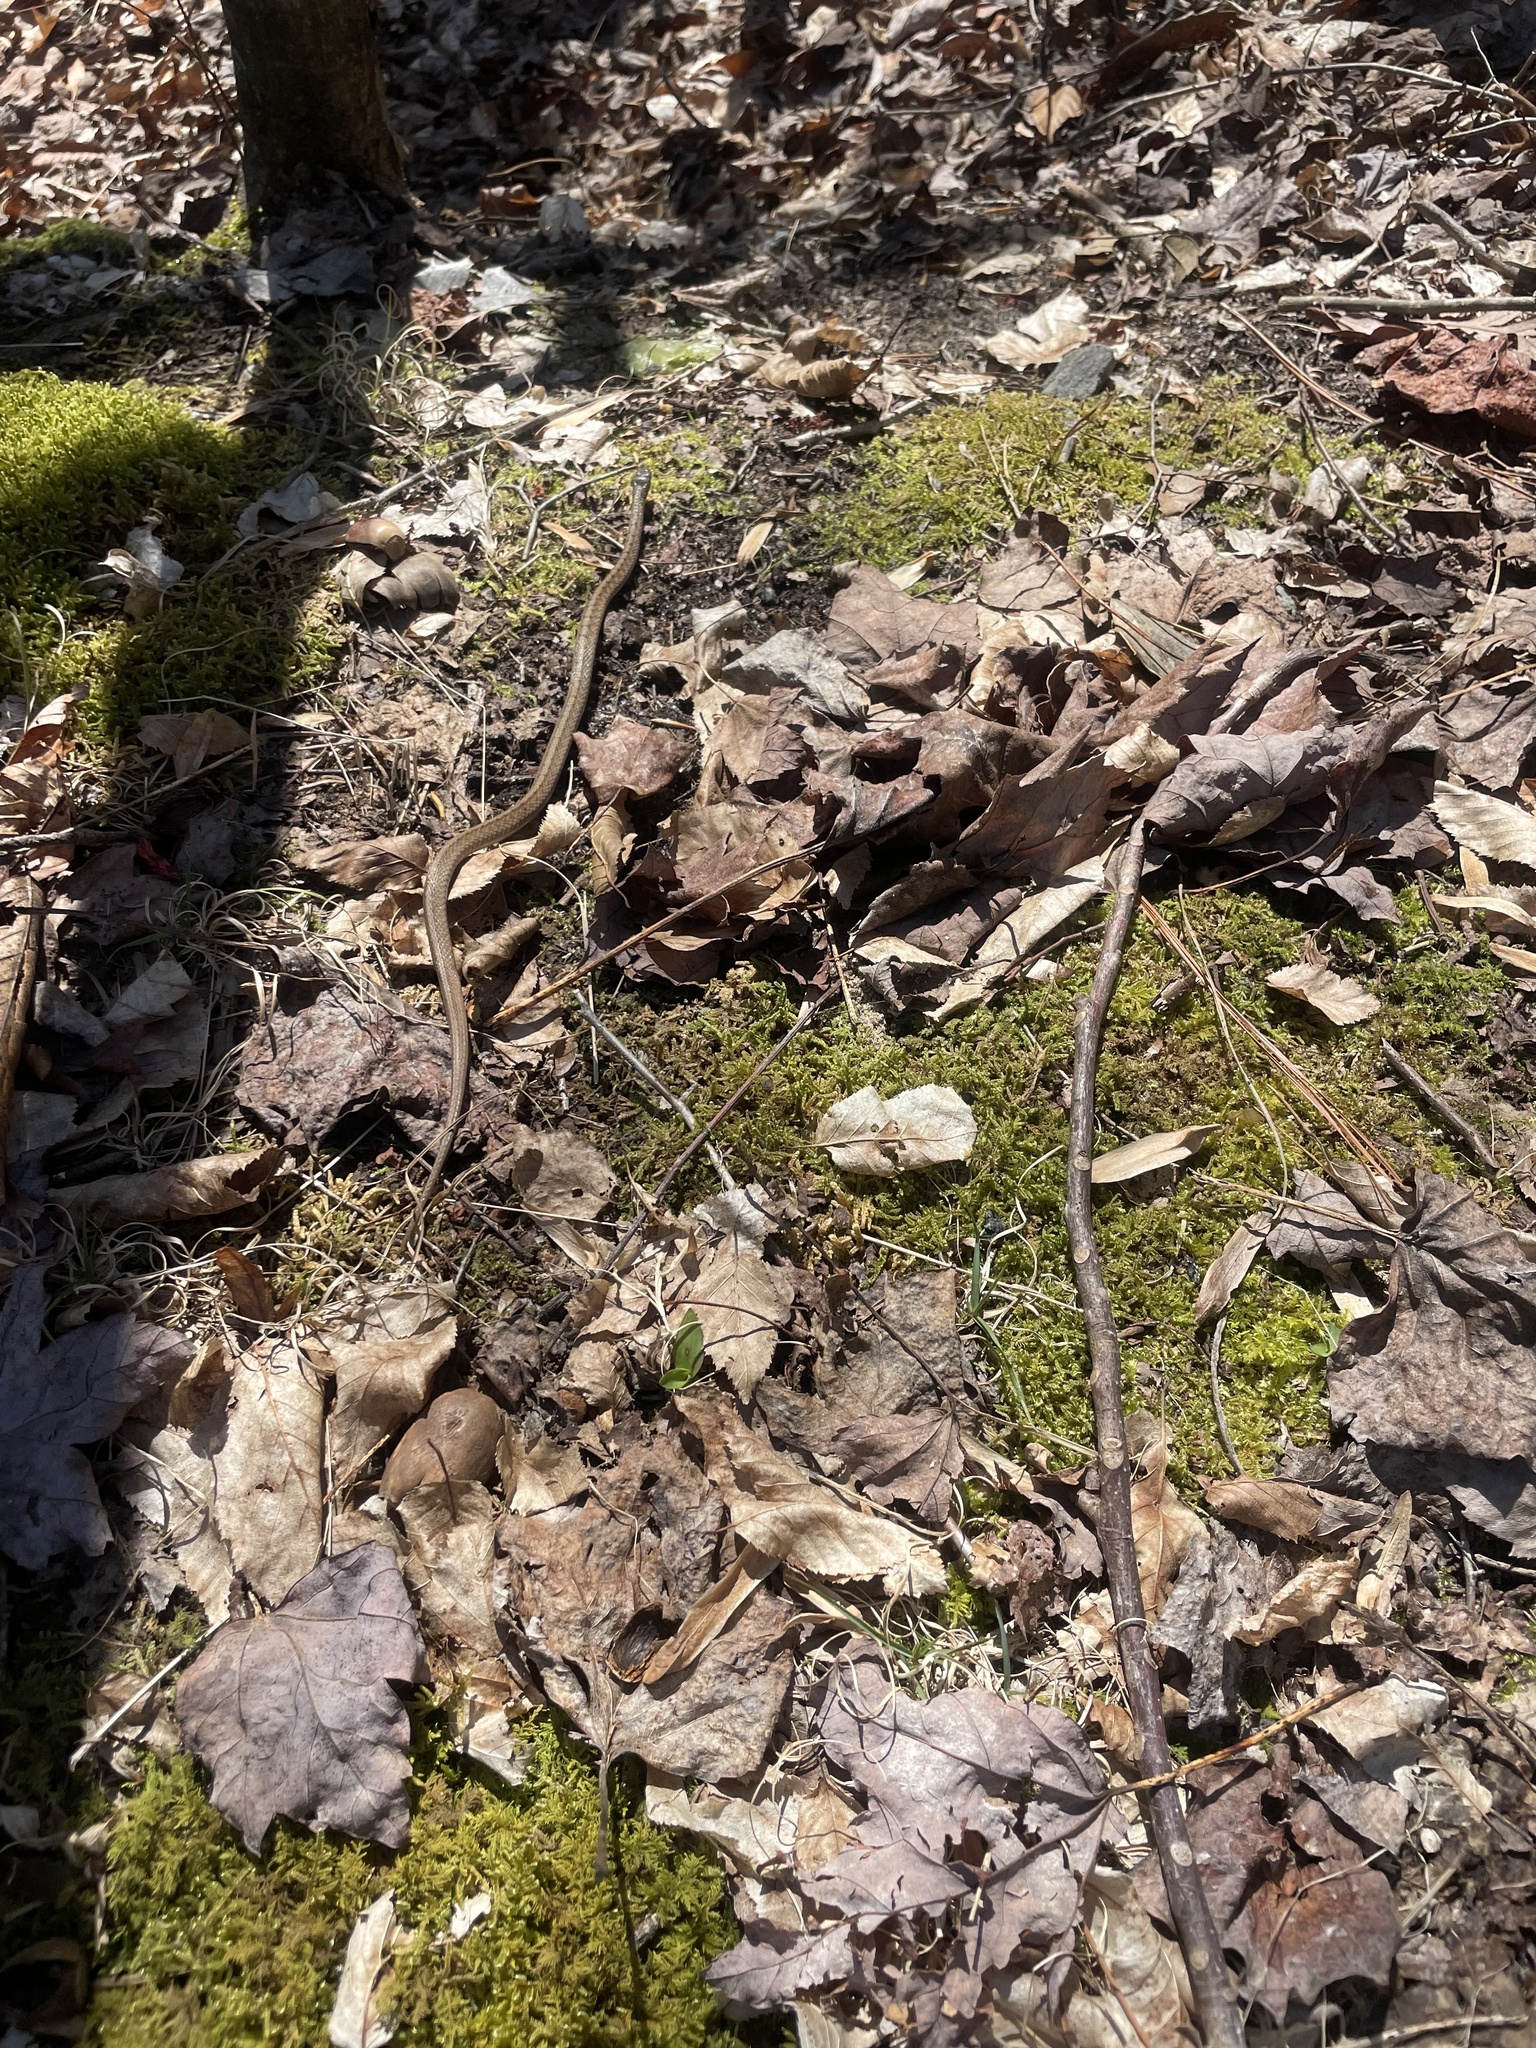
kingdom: Animalia
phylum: Chordata
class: Squamata
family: Colubridae
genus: Storeria
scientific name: Storeria dekayi
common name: (dekay’s) brown snake
